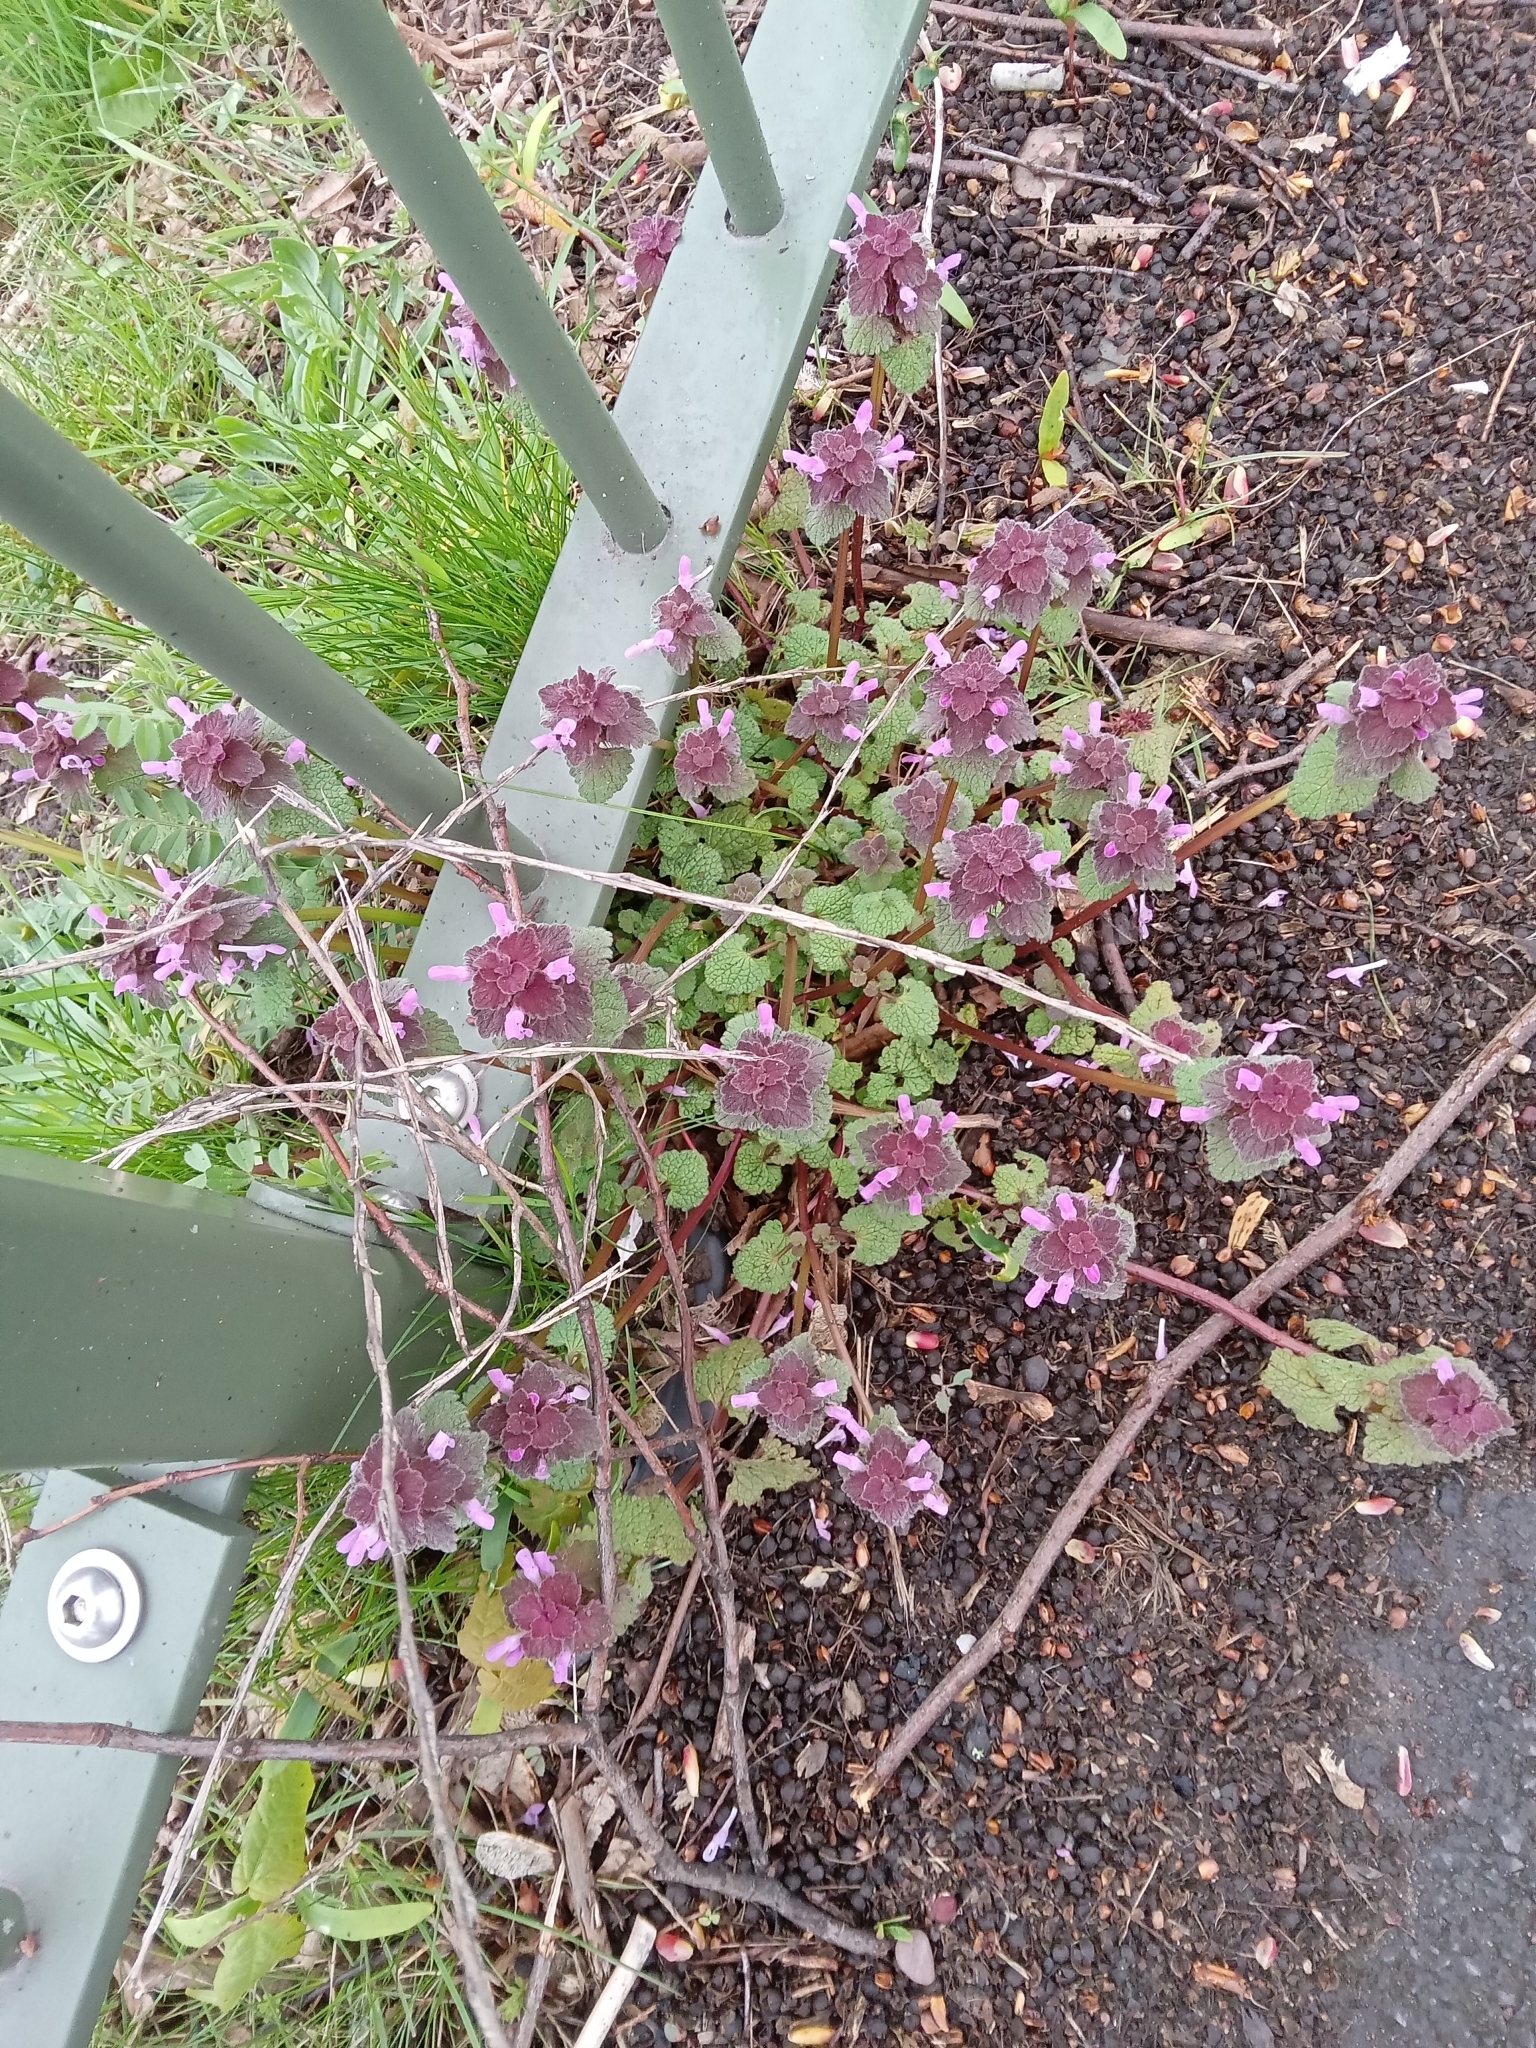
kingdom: Plantae
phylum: Tracheophyta
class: Magnoliopsida
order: Lamiales
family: Lamiaceae
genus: Lamium
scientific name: Lamium purpureum
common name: Red dead-nettle
